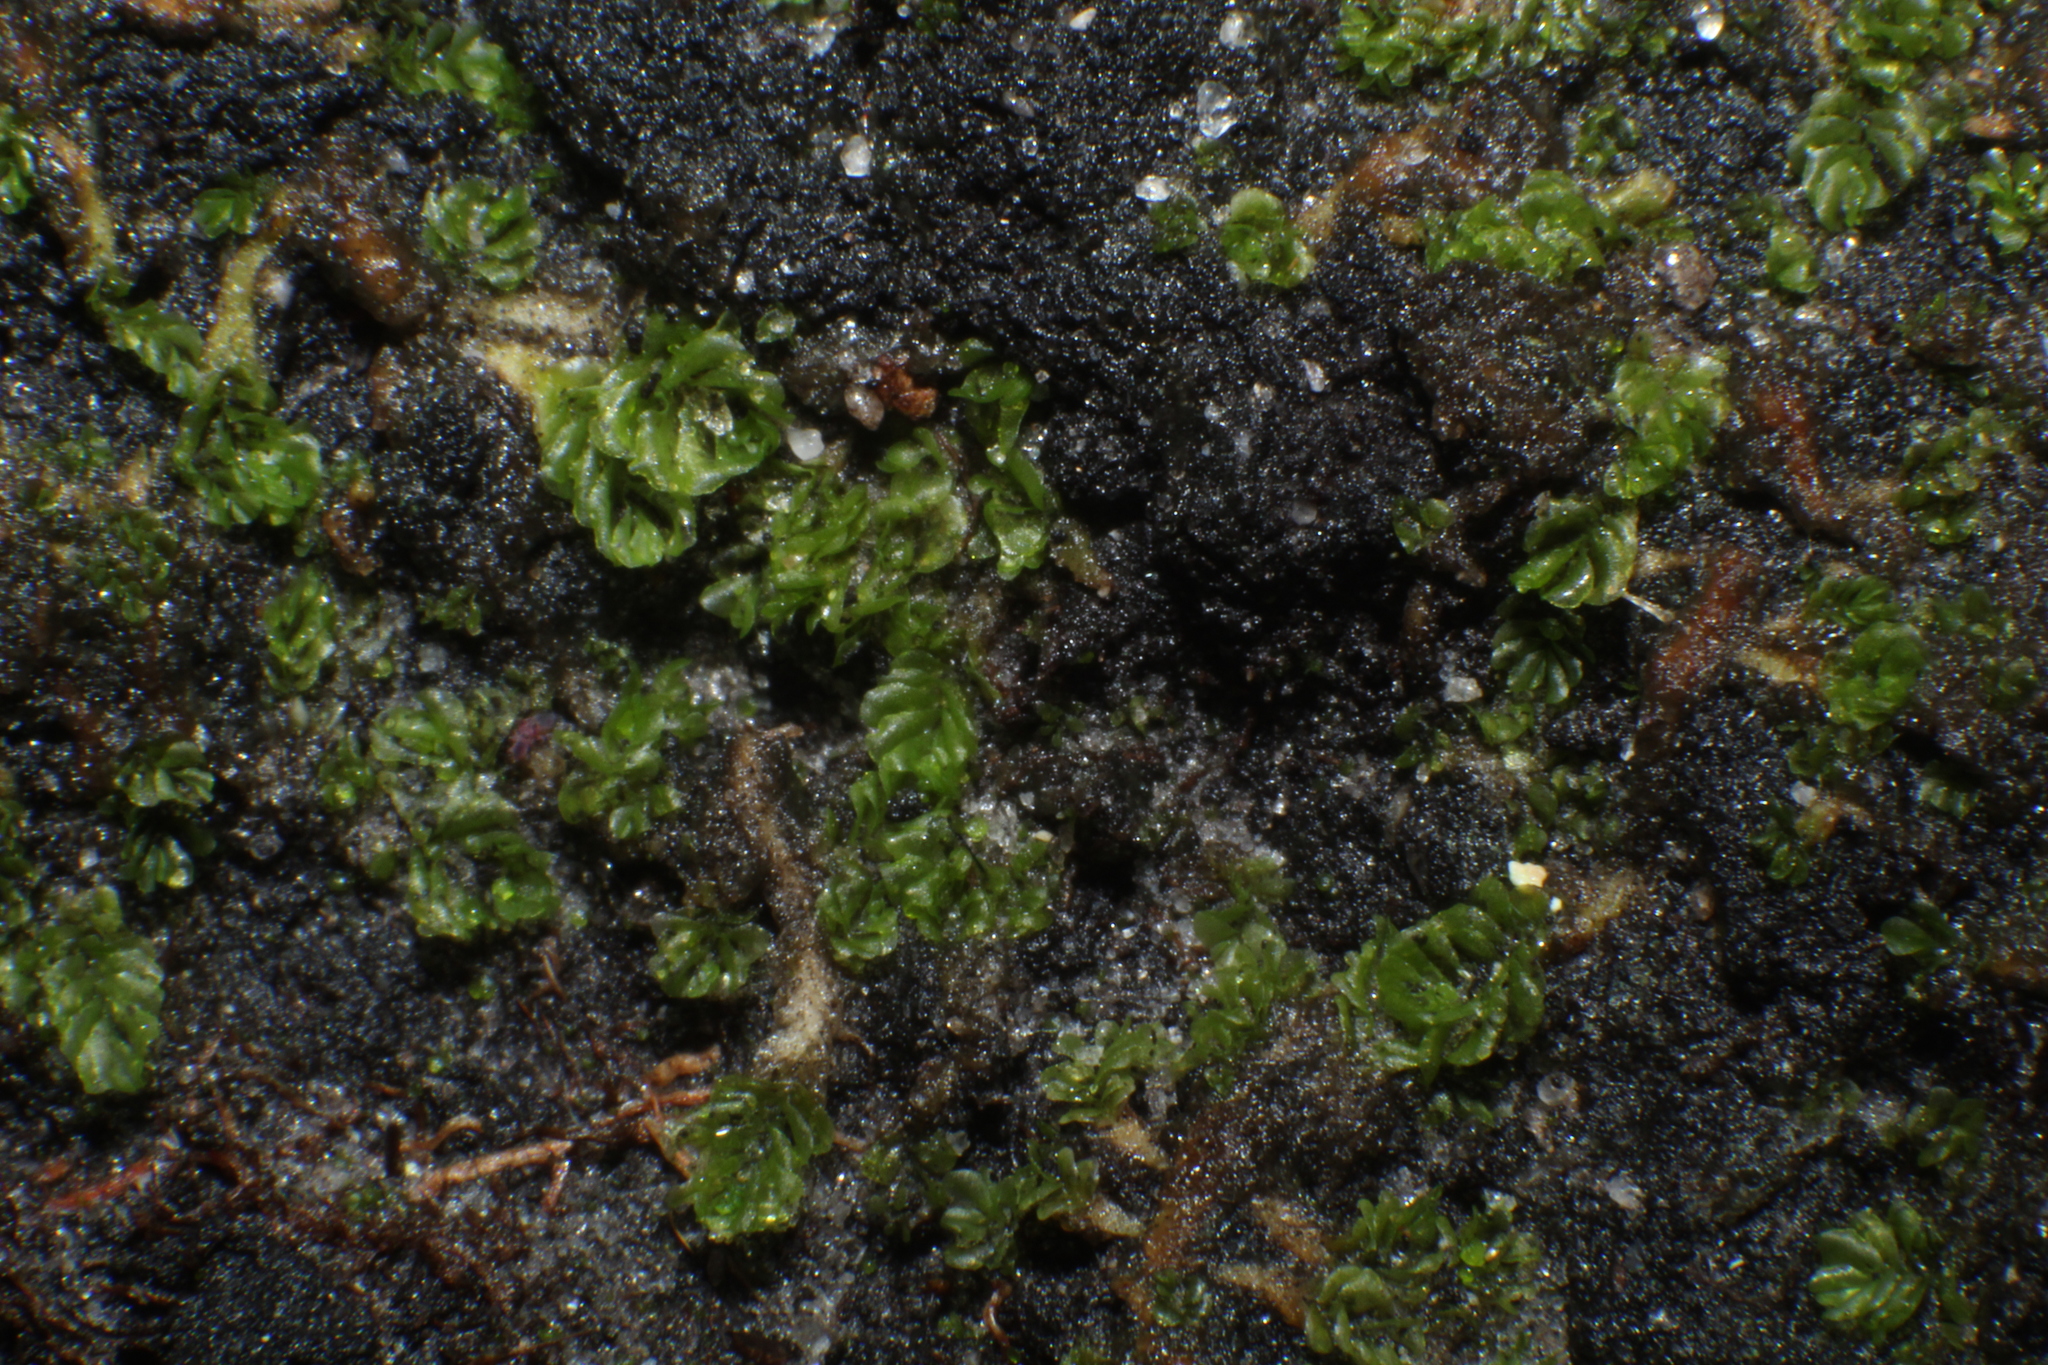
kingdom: Plantae
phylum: Marchantiophyta
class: Jungermanniopsida
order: Jungermanniales
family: Acrobolbaceae
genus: Lethocolea
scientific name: Lethocolea pansa
